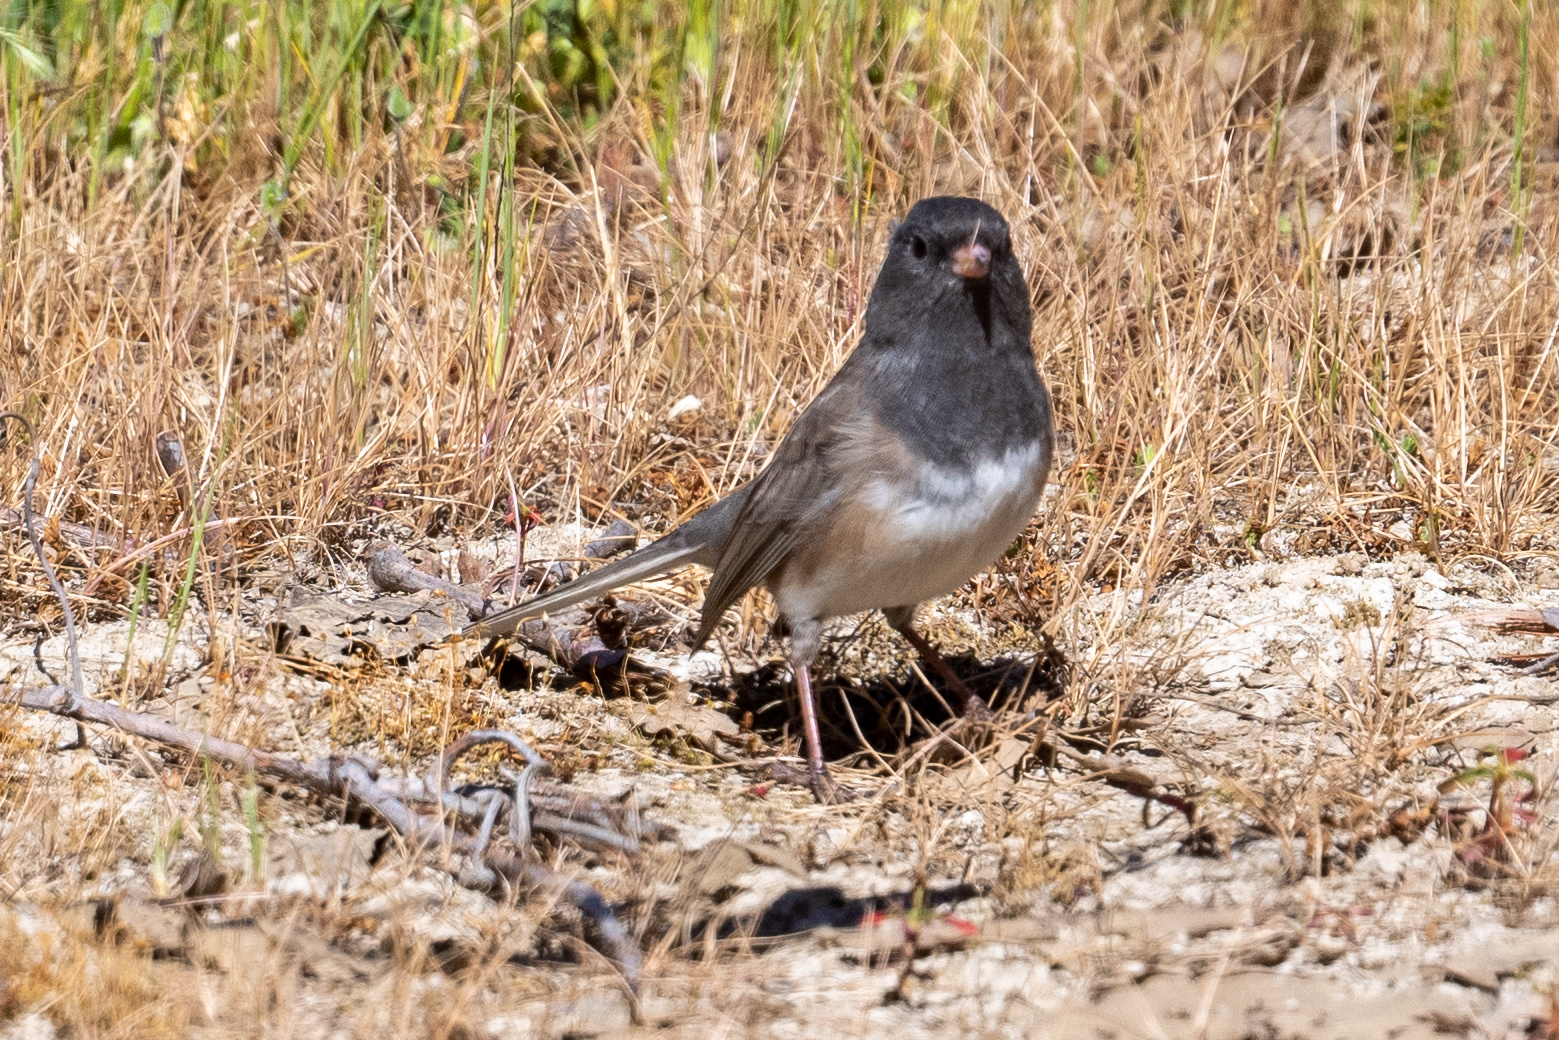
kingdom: Animalia
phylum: Chordata
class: Aves
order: Passeriformes
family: Passerellidae
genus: Junco
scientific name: Junco hyemalis
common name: Dark-eyed junco
